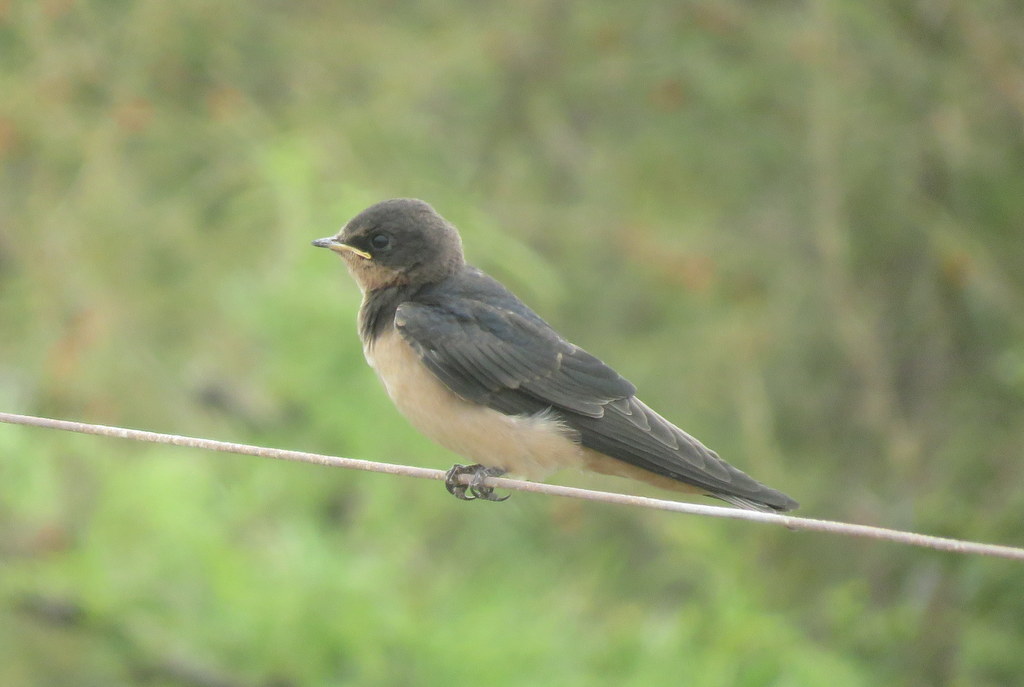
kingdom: Animalia
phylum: Chordata
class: Aves
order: Passeriformes
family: Hirundinidae
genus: Hirundo
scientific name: Hirundo rustica
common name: Barn swallow
